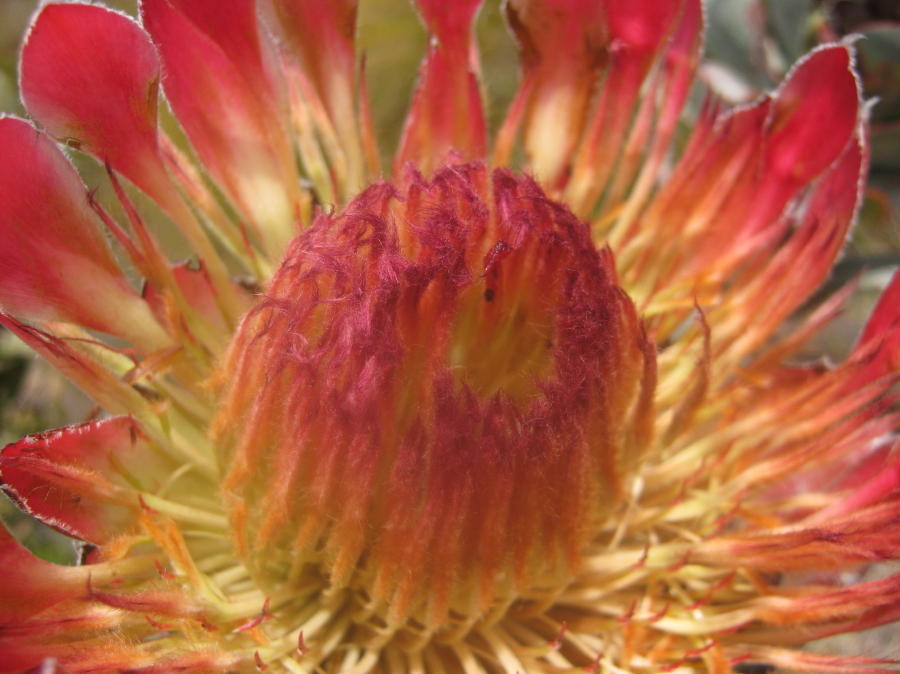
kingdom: Plantae
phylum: Tracheophyta
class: Magnoliopsida
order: Proteales
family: Proteaceae
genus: Protea
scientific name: Protea eximia
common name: Broad-leaved sugarbush
